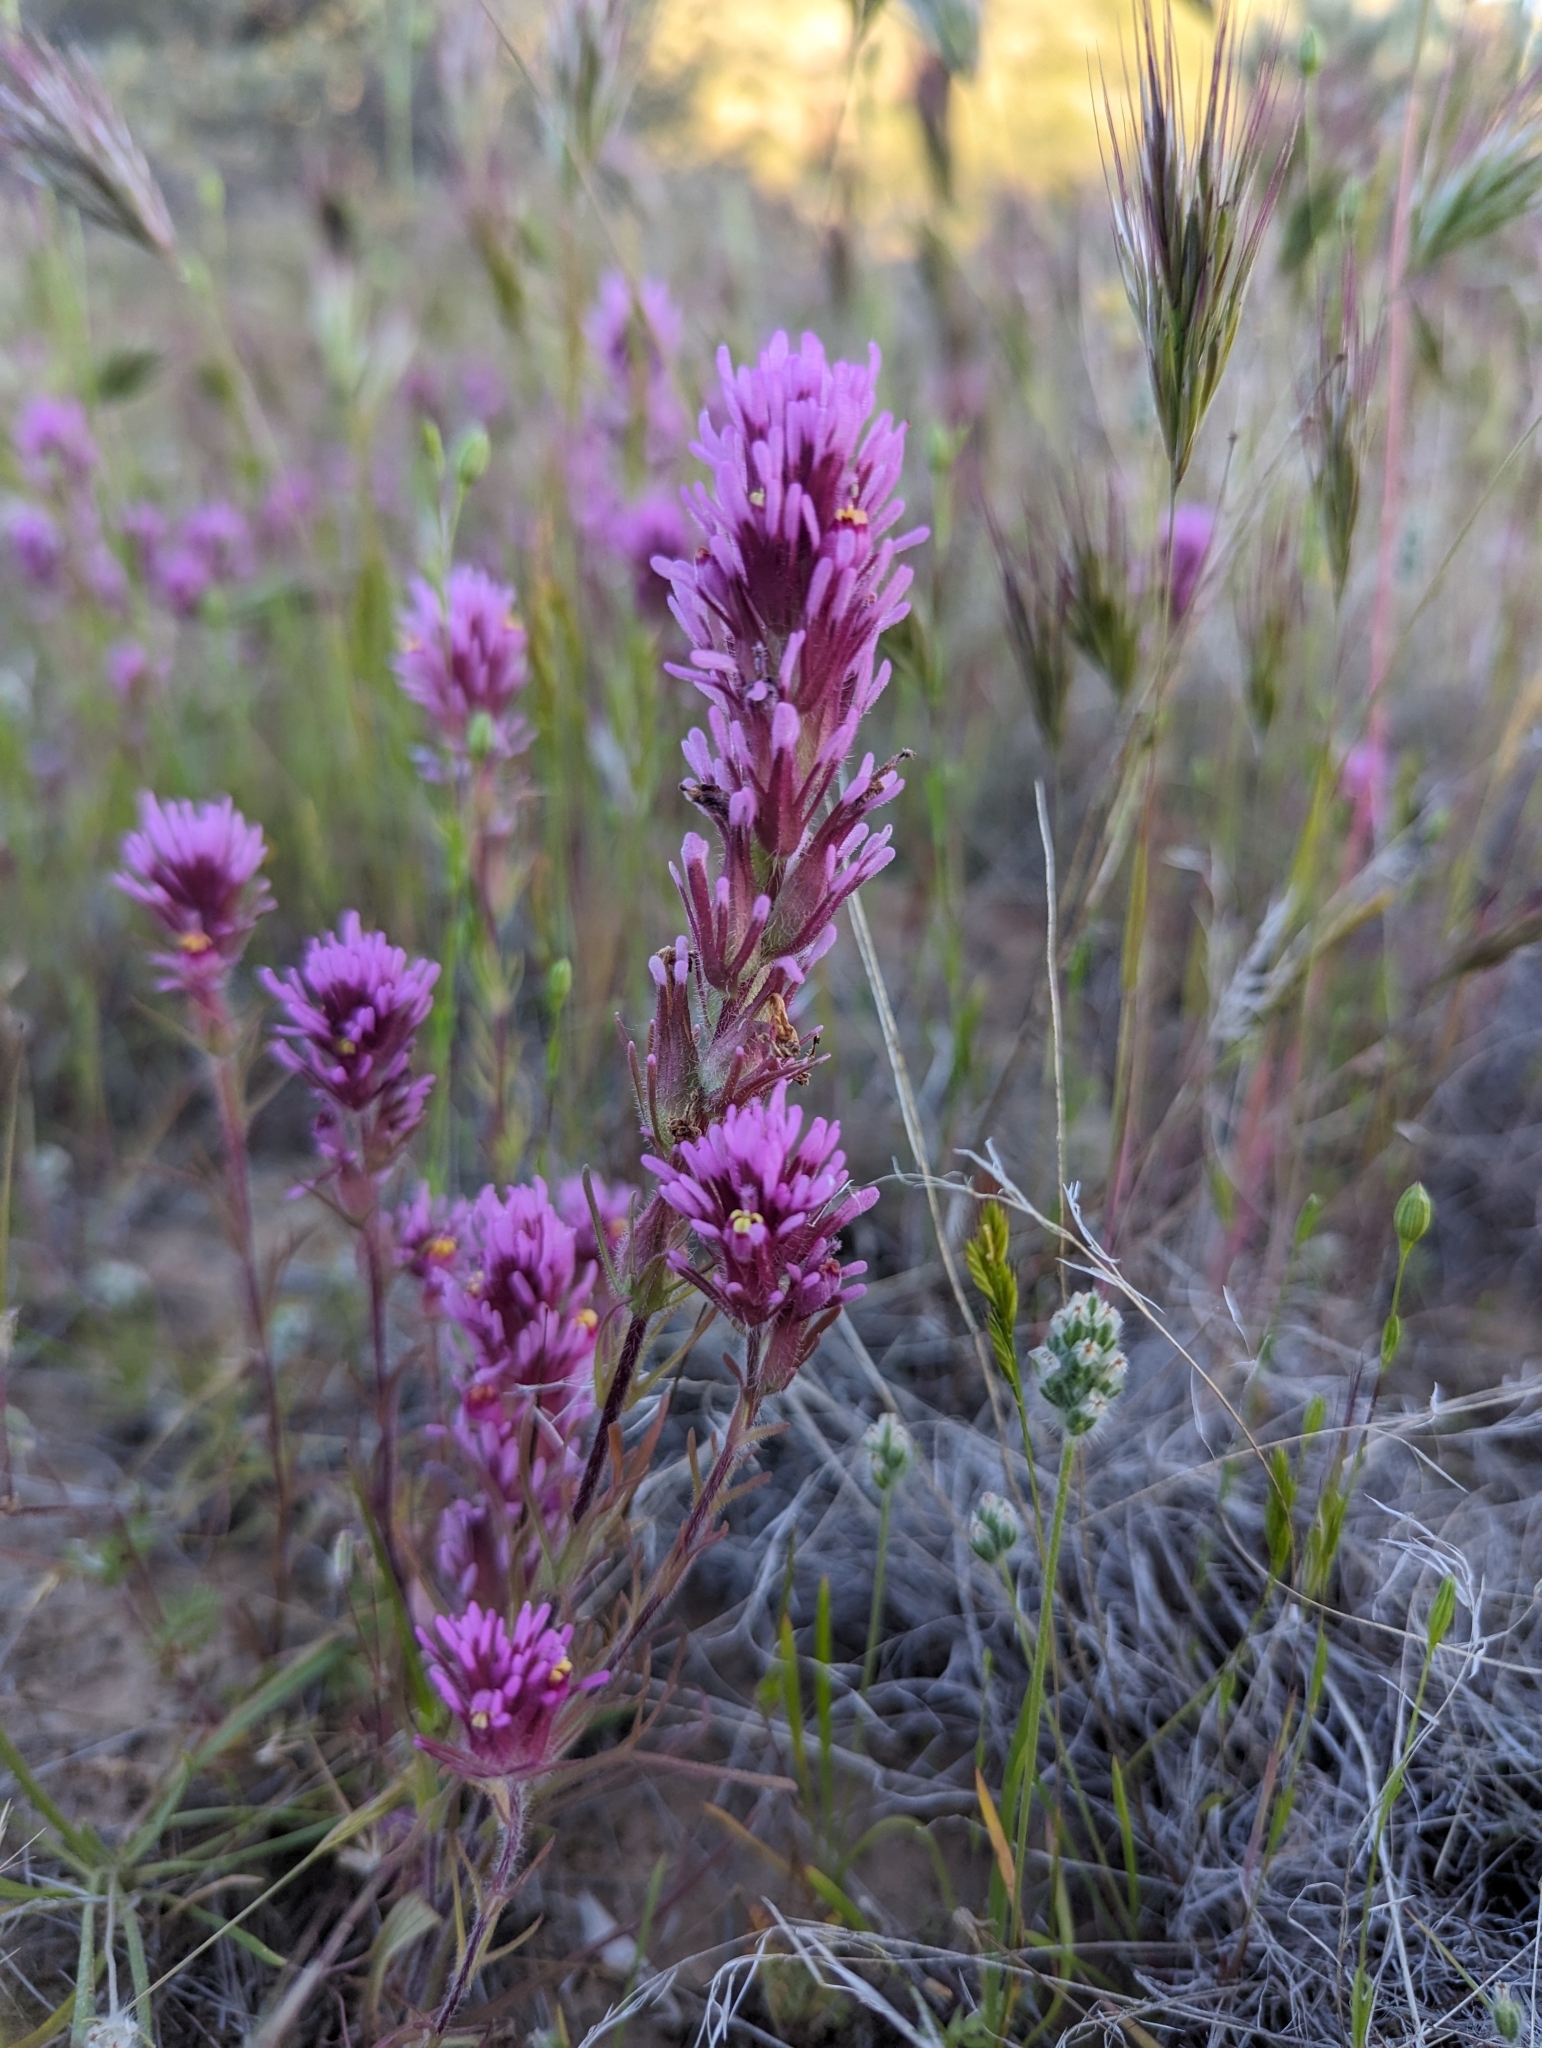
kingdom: Plantae
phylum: Tracheophyta
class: Magnoliopsida
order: Lamiales
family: Orobanchaceae
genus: Castilleja
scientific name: Castilleja exserta
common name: Purple owl-clover
